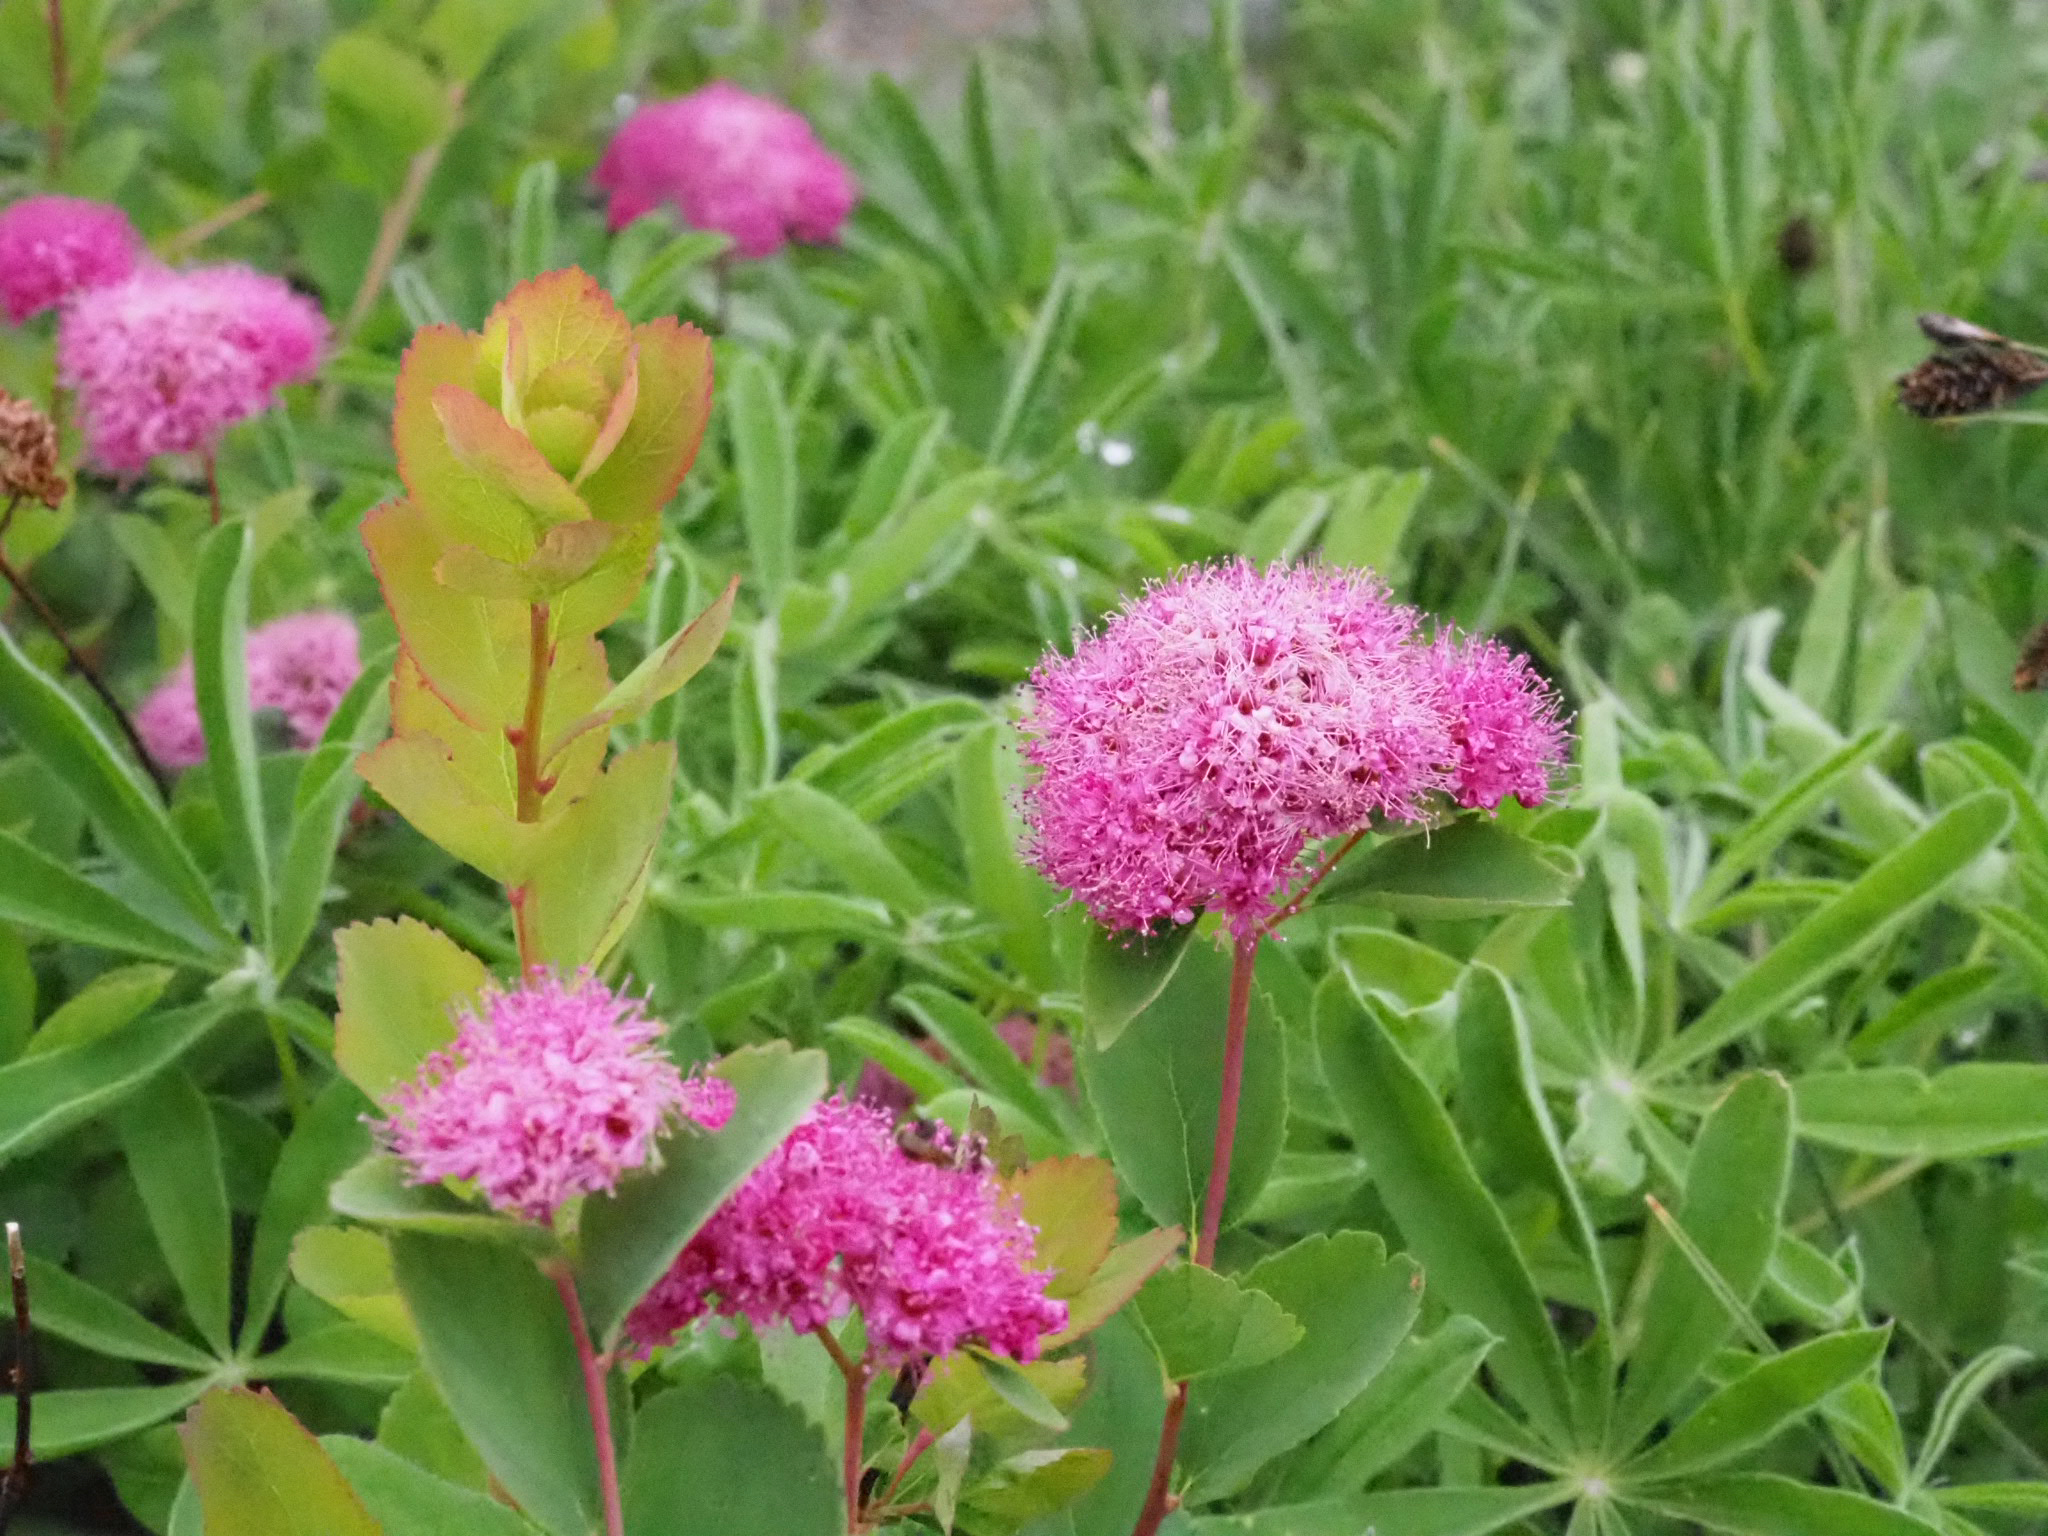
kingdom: Plantae
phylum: Tracheophyta
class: Magnoliopsida
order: Rosales
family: Rosaceae
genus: Spiraea
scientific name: Spiraea splendens
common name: Subalpine meadowsweet
